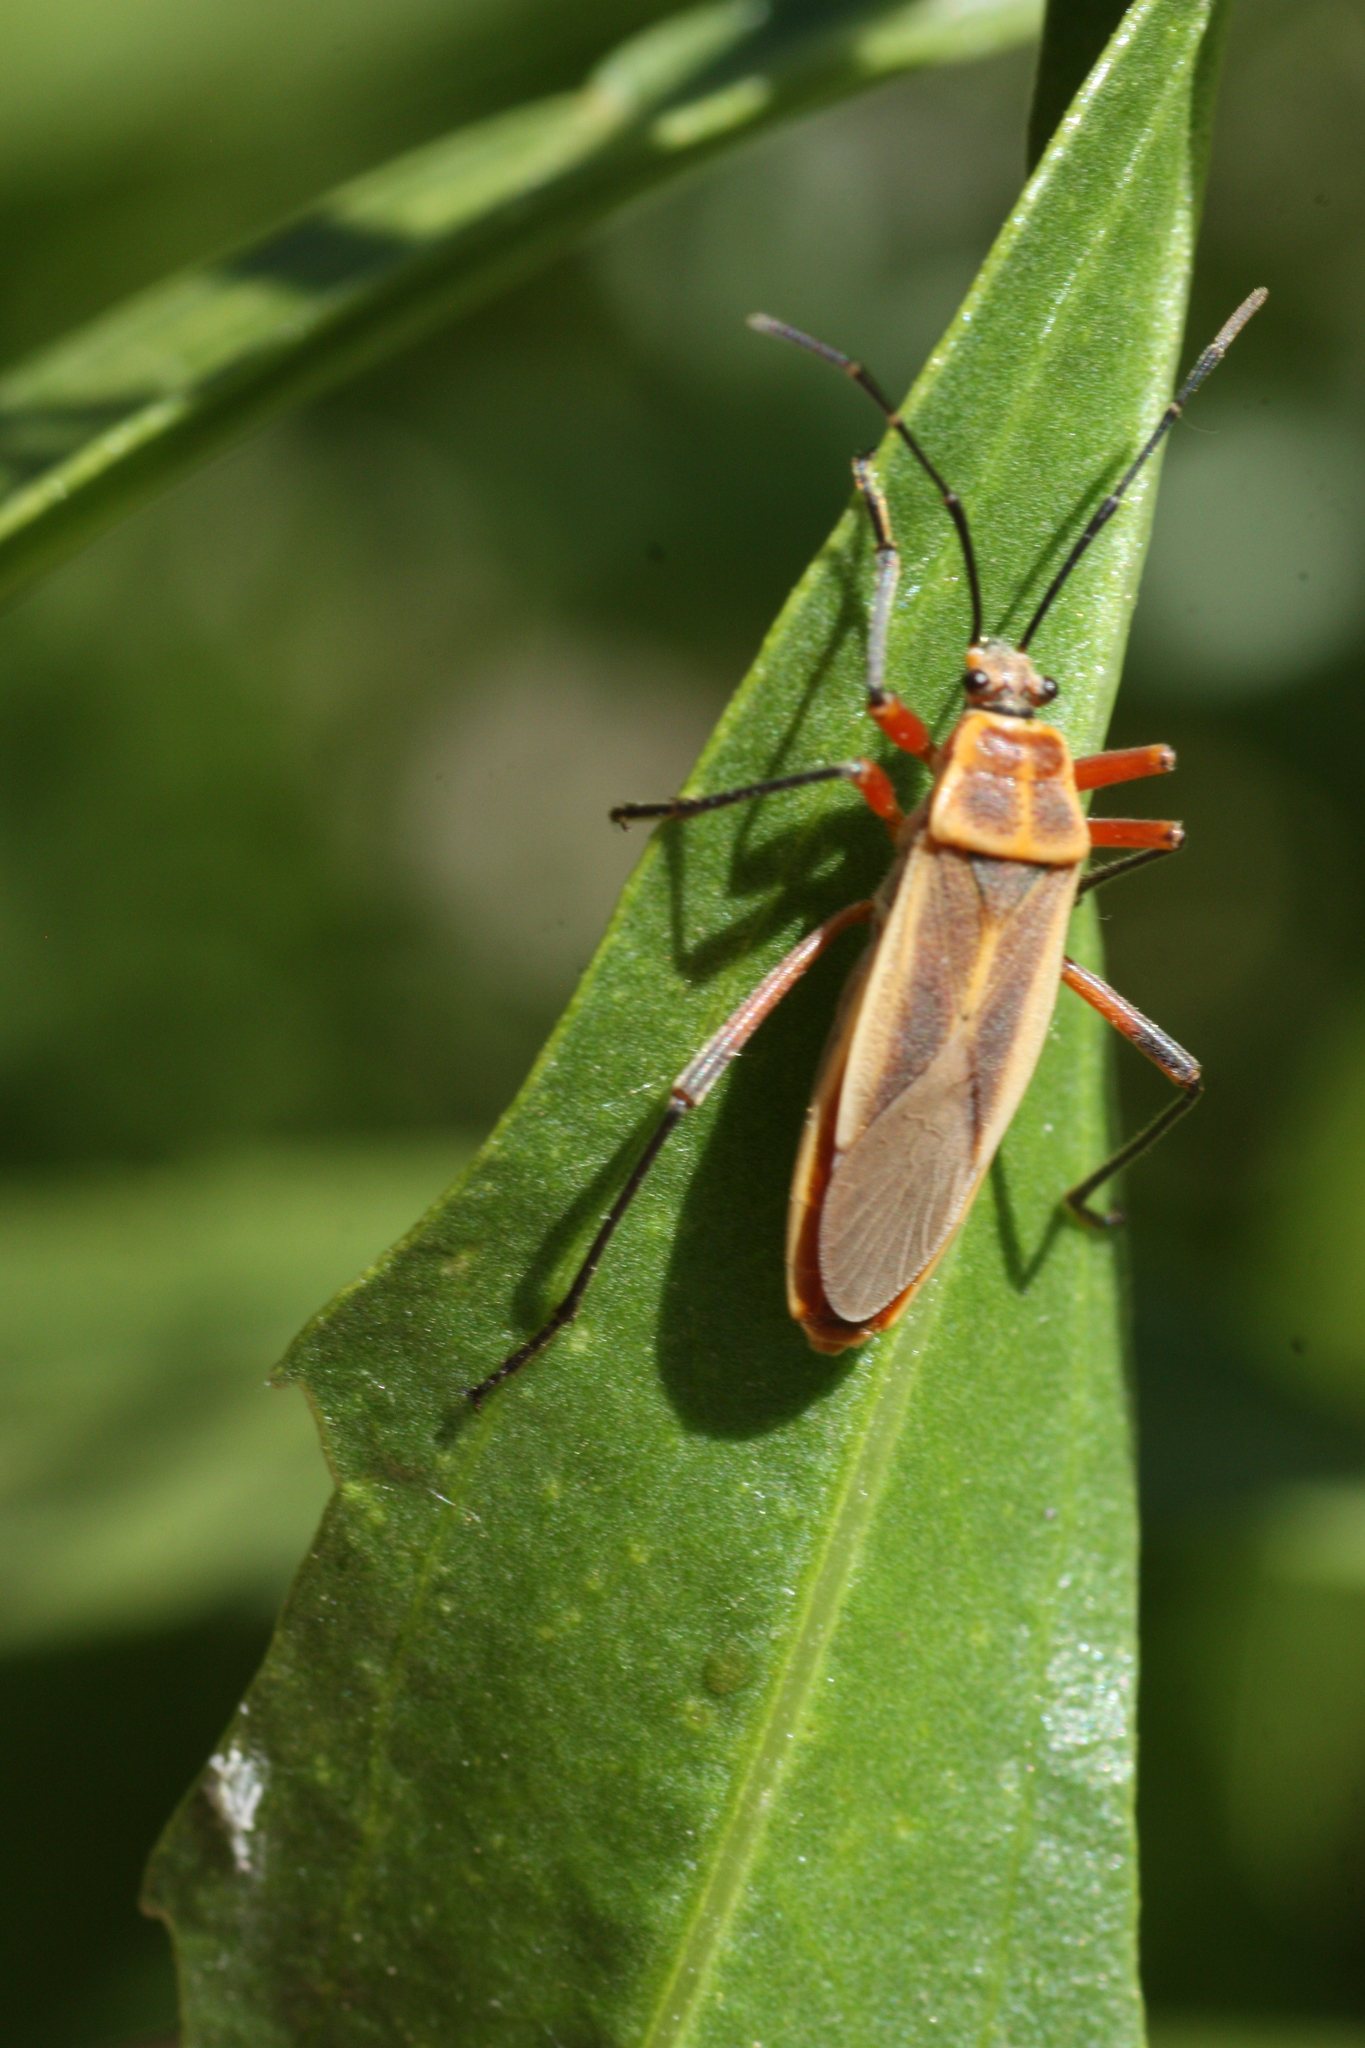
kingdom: Animalia
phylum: Arthropoda
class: Insecta
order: Hemiptera
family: Largidae
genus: Stenomacra
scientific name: Stenomacra marginella
